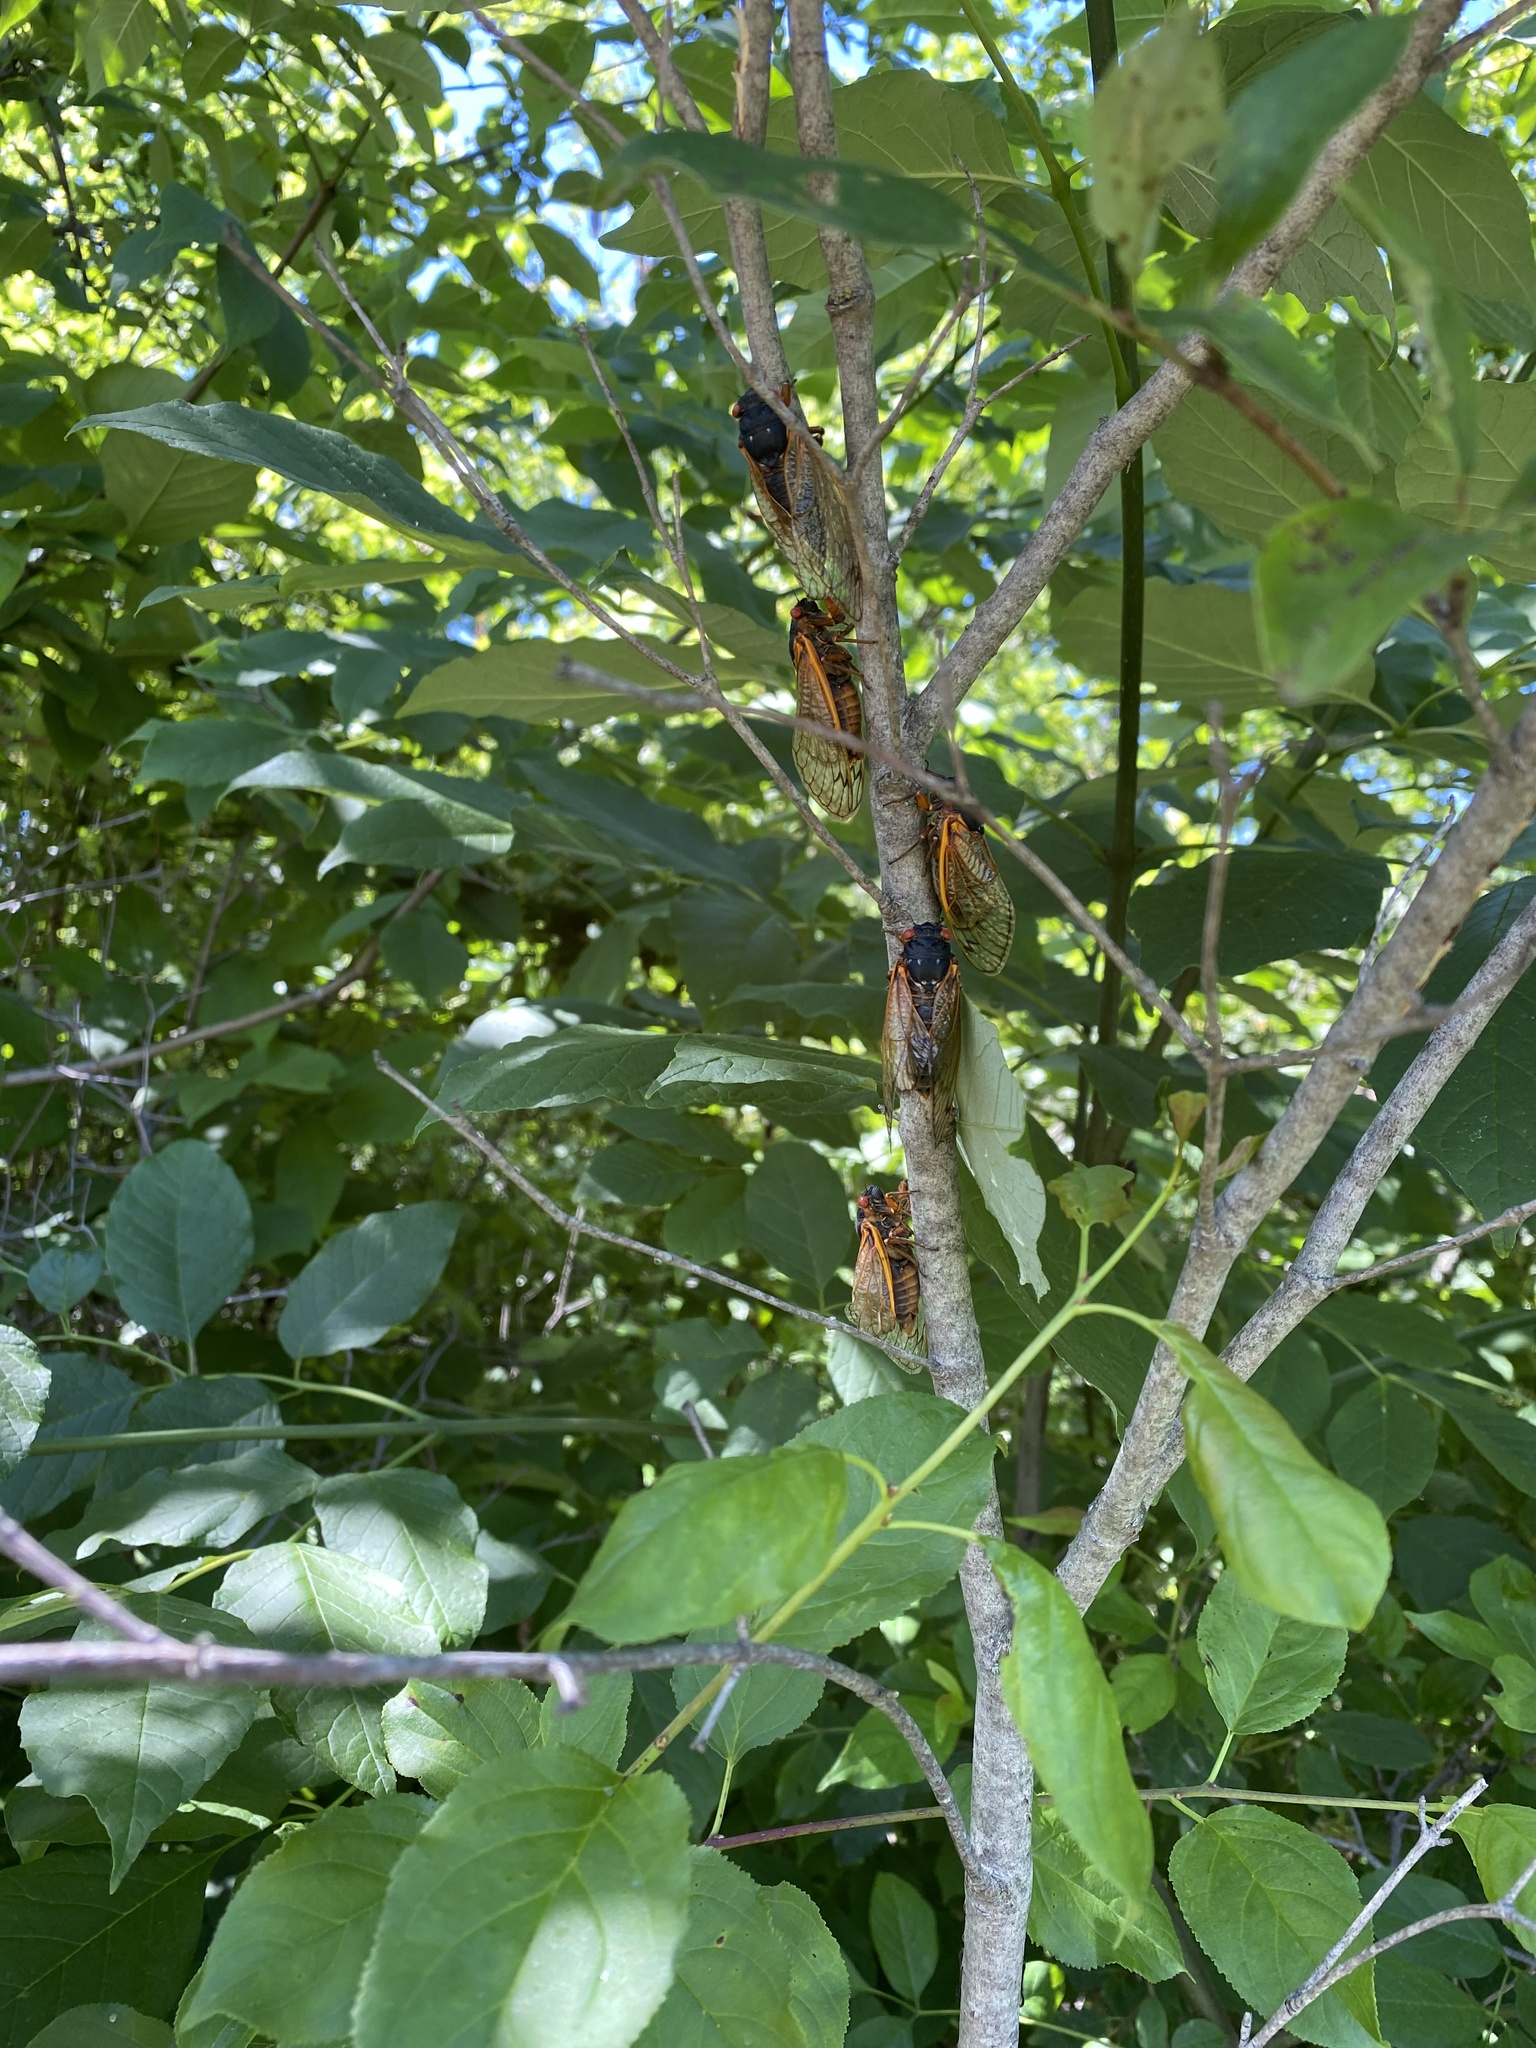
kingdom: Animalia
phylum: Arthropoda
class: Insecta
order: Hemiptera
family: Cicadidae
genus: Magicicada
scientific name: Magicicada septendecim
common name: Periodical cicada
